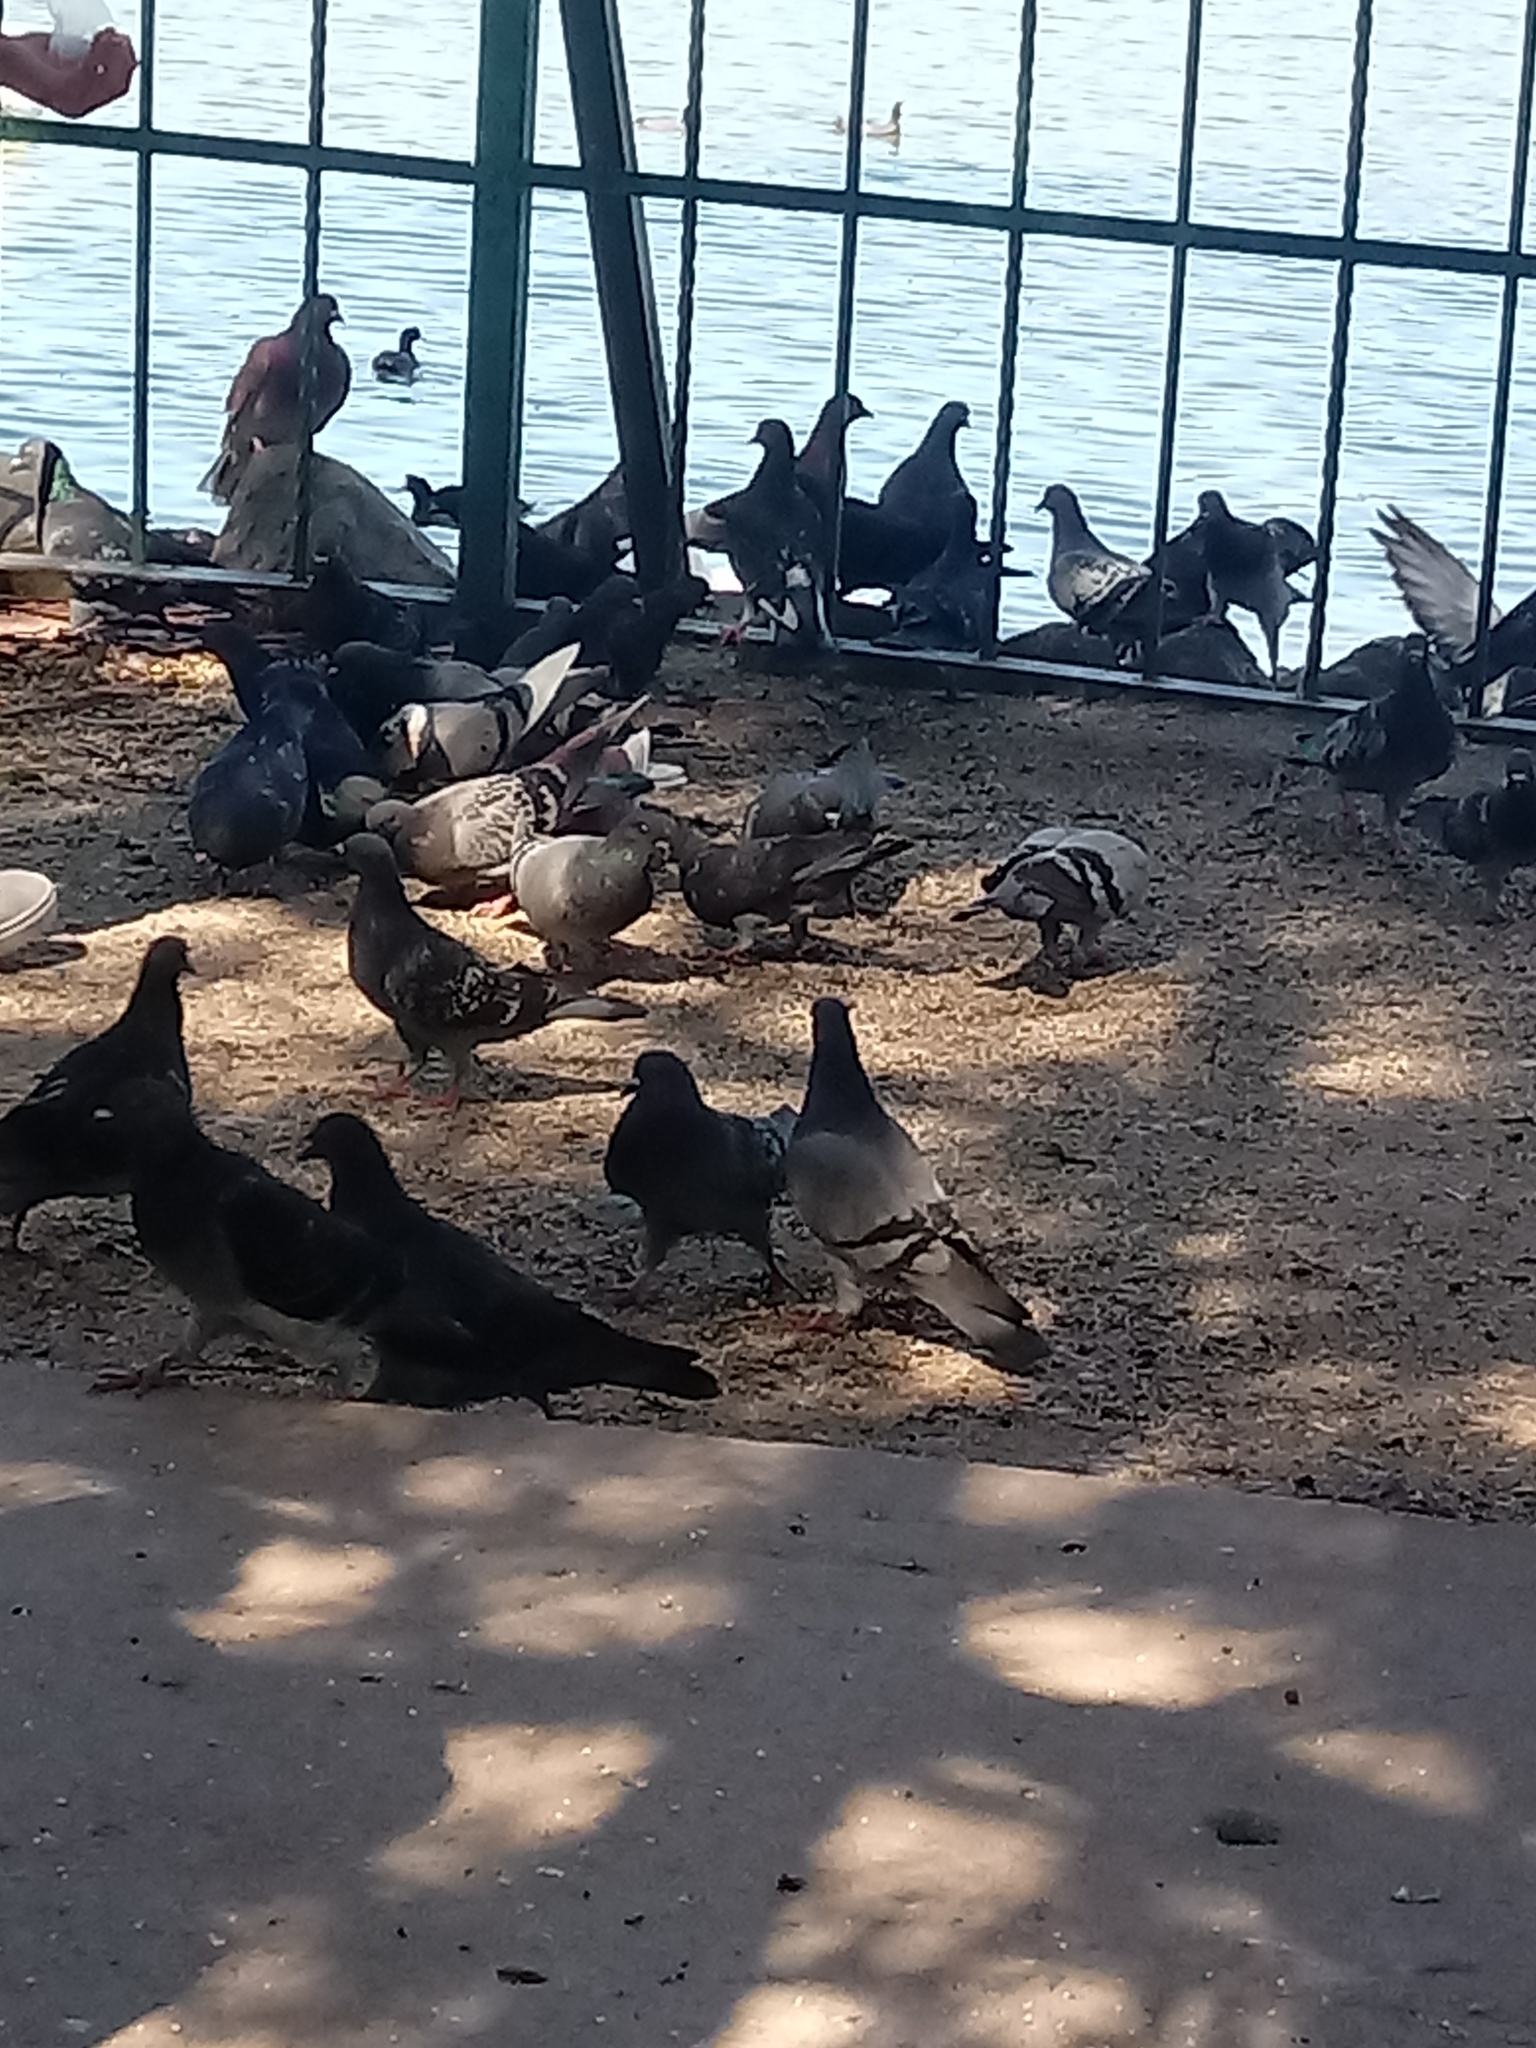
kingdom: Animalia
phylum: Chordata
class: Aves
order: Columbiformes
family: Columbidae
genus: Columba
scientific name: Columba livia
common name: Rock pigeon
